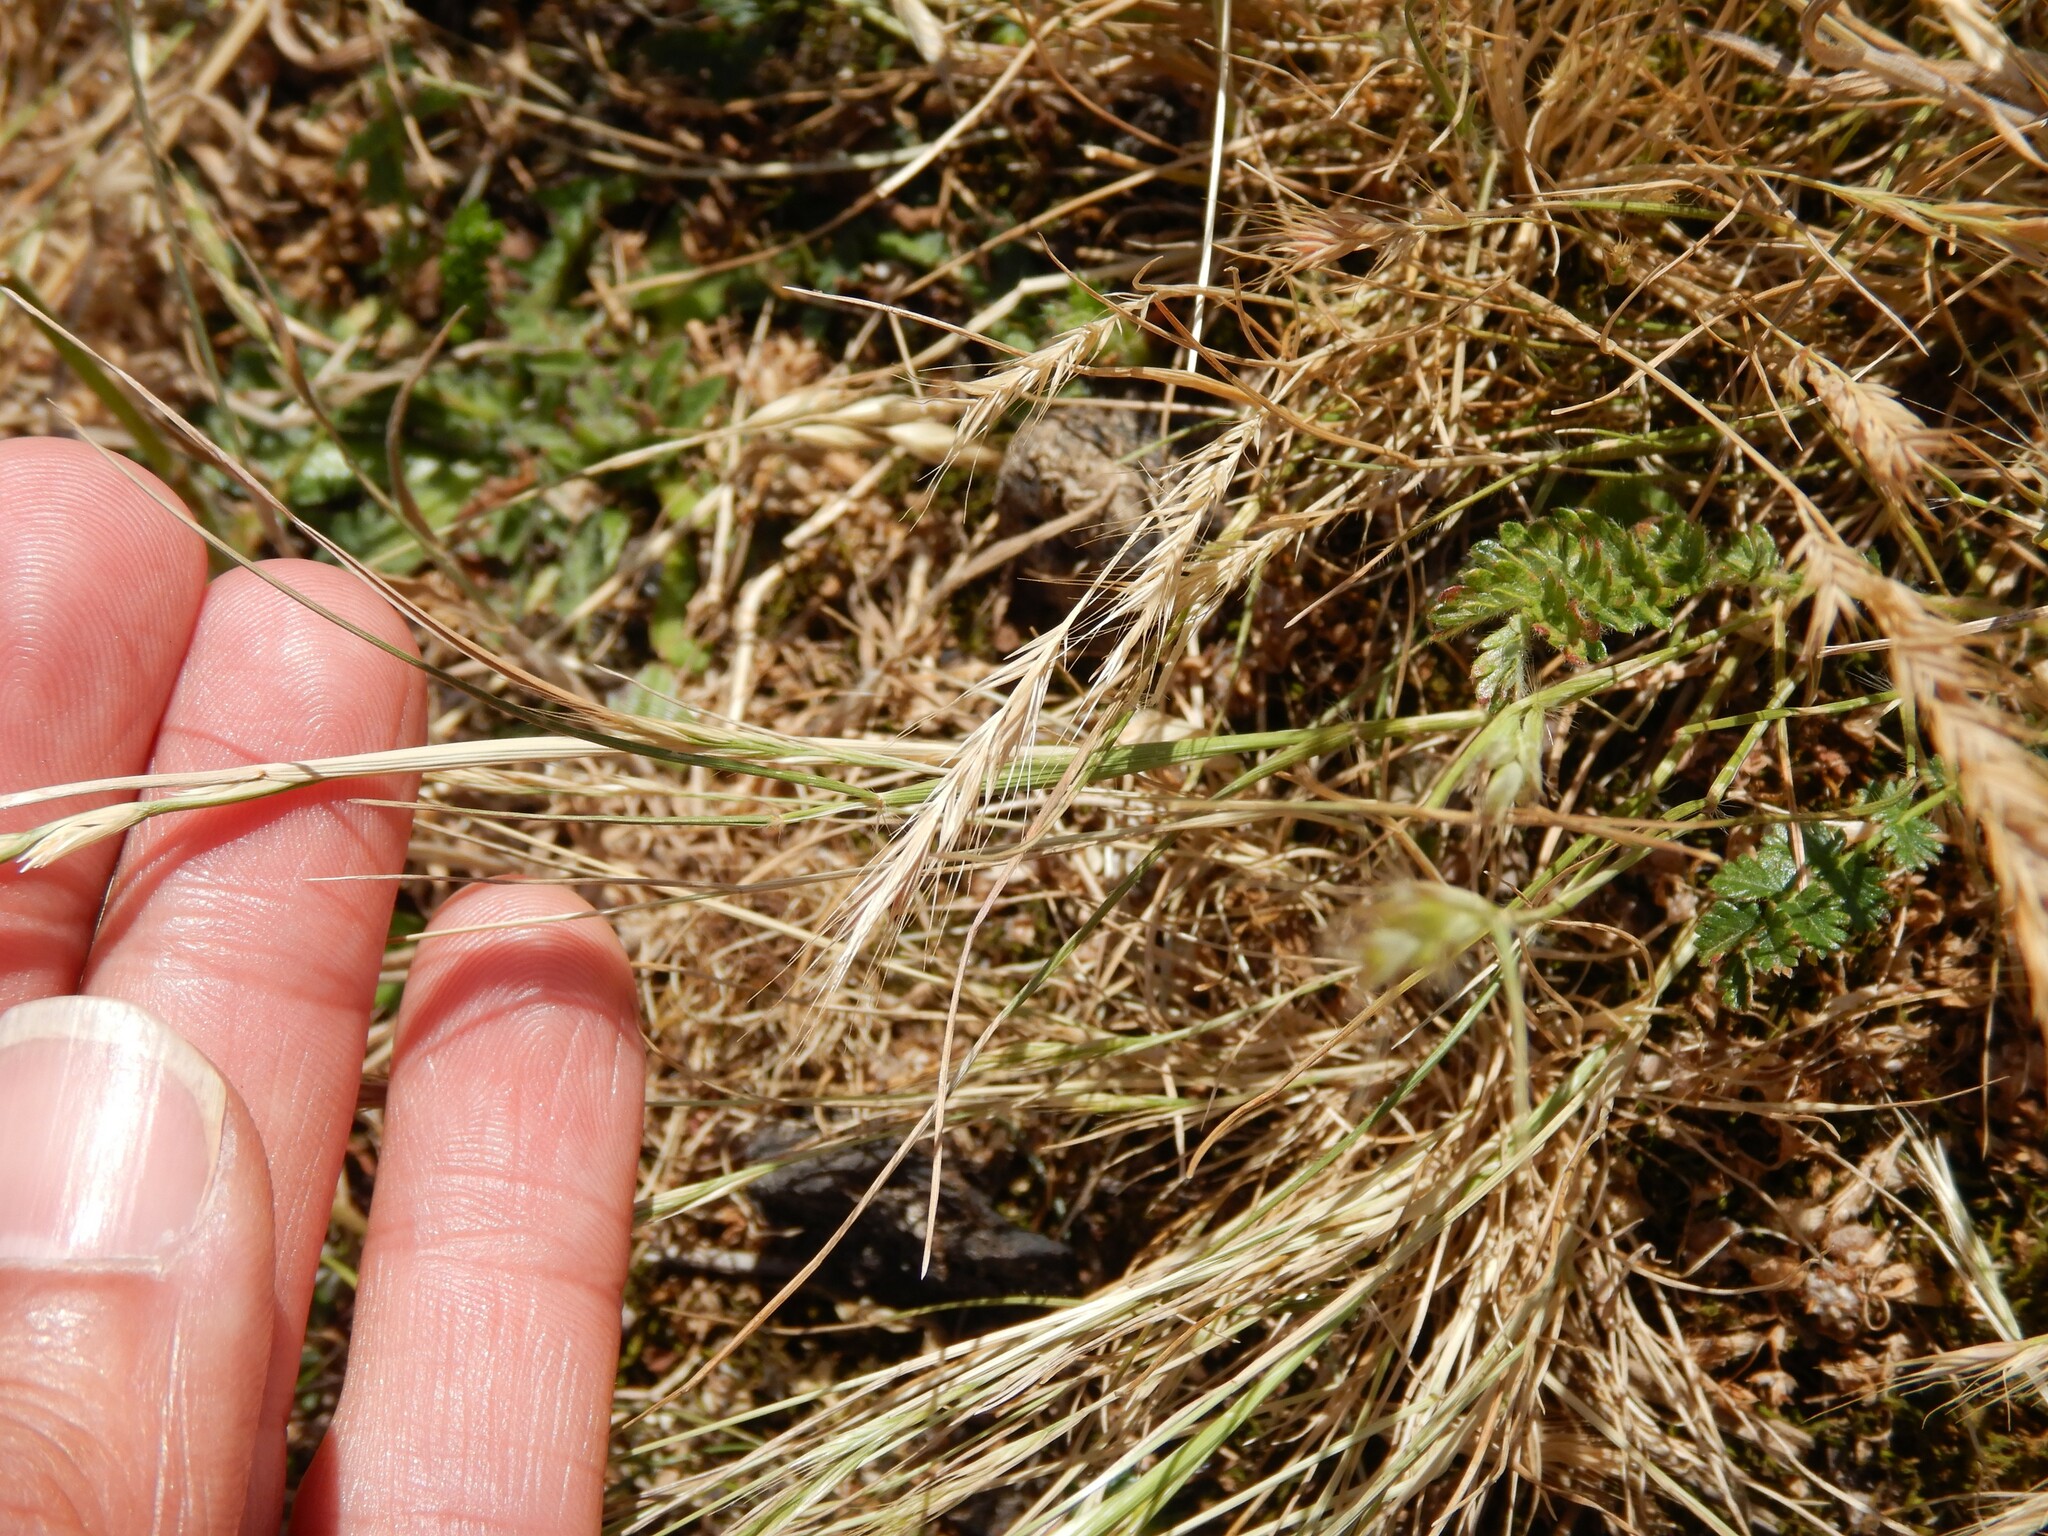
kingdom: Plantae
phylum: Tracheophyta
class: Liliopsida
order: Poales
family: Poaceae
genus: Lolium
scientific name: Lolium perenne
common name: Perennial ryegrass
